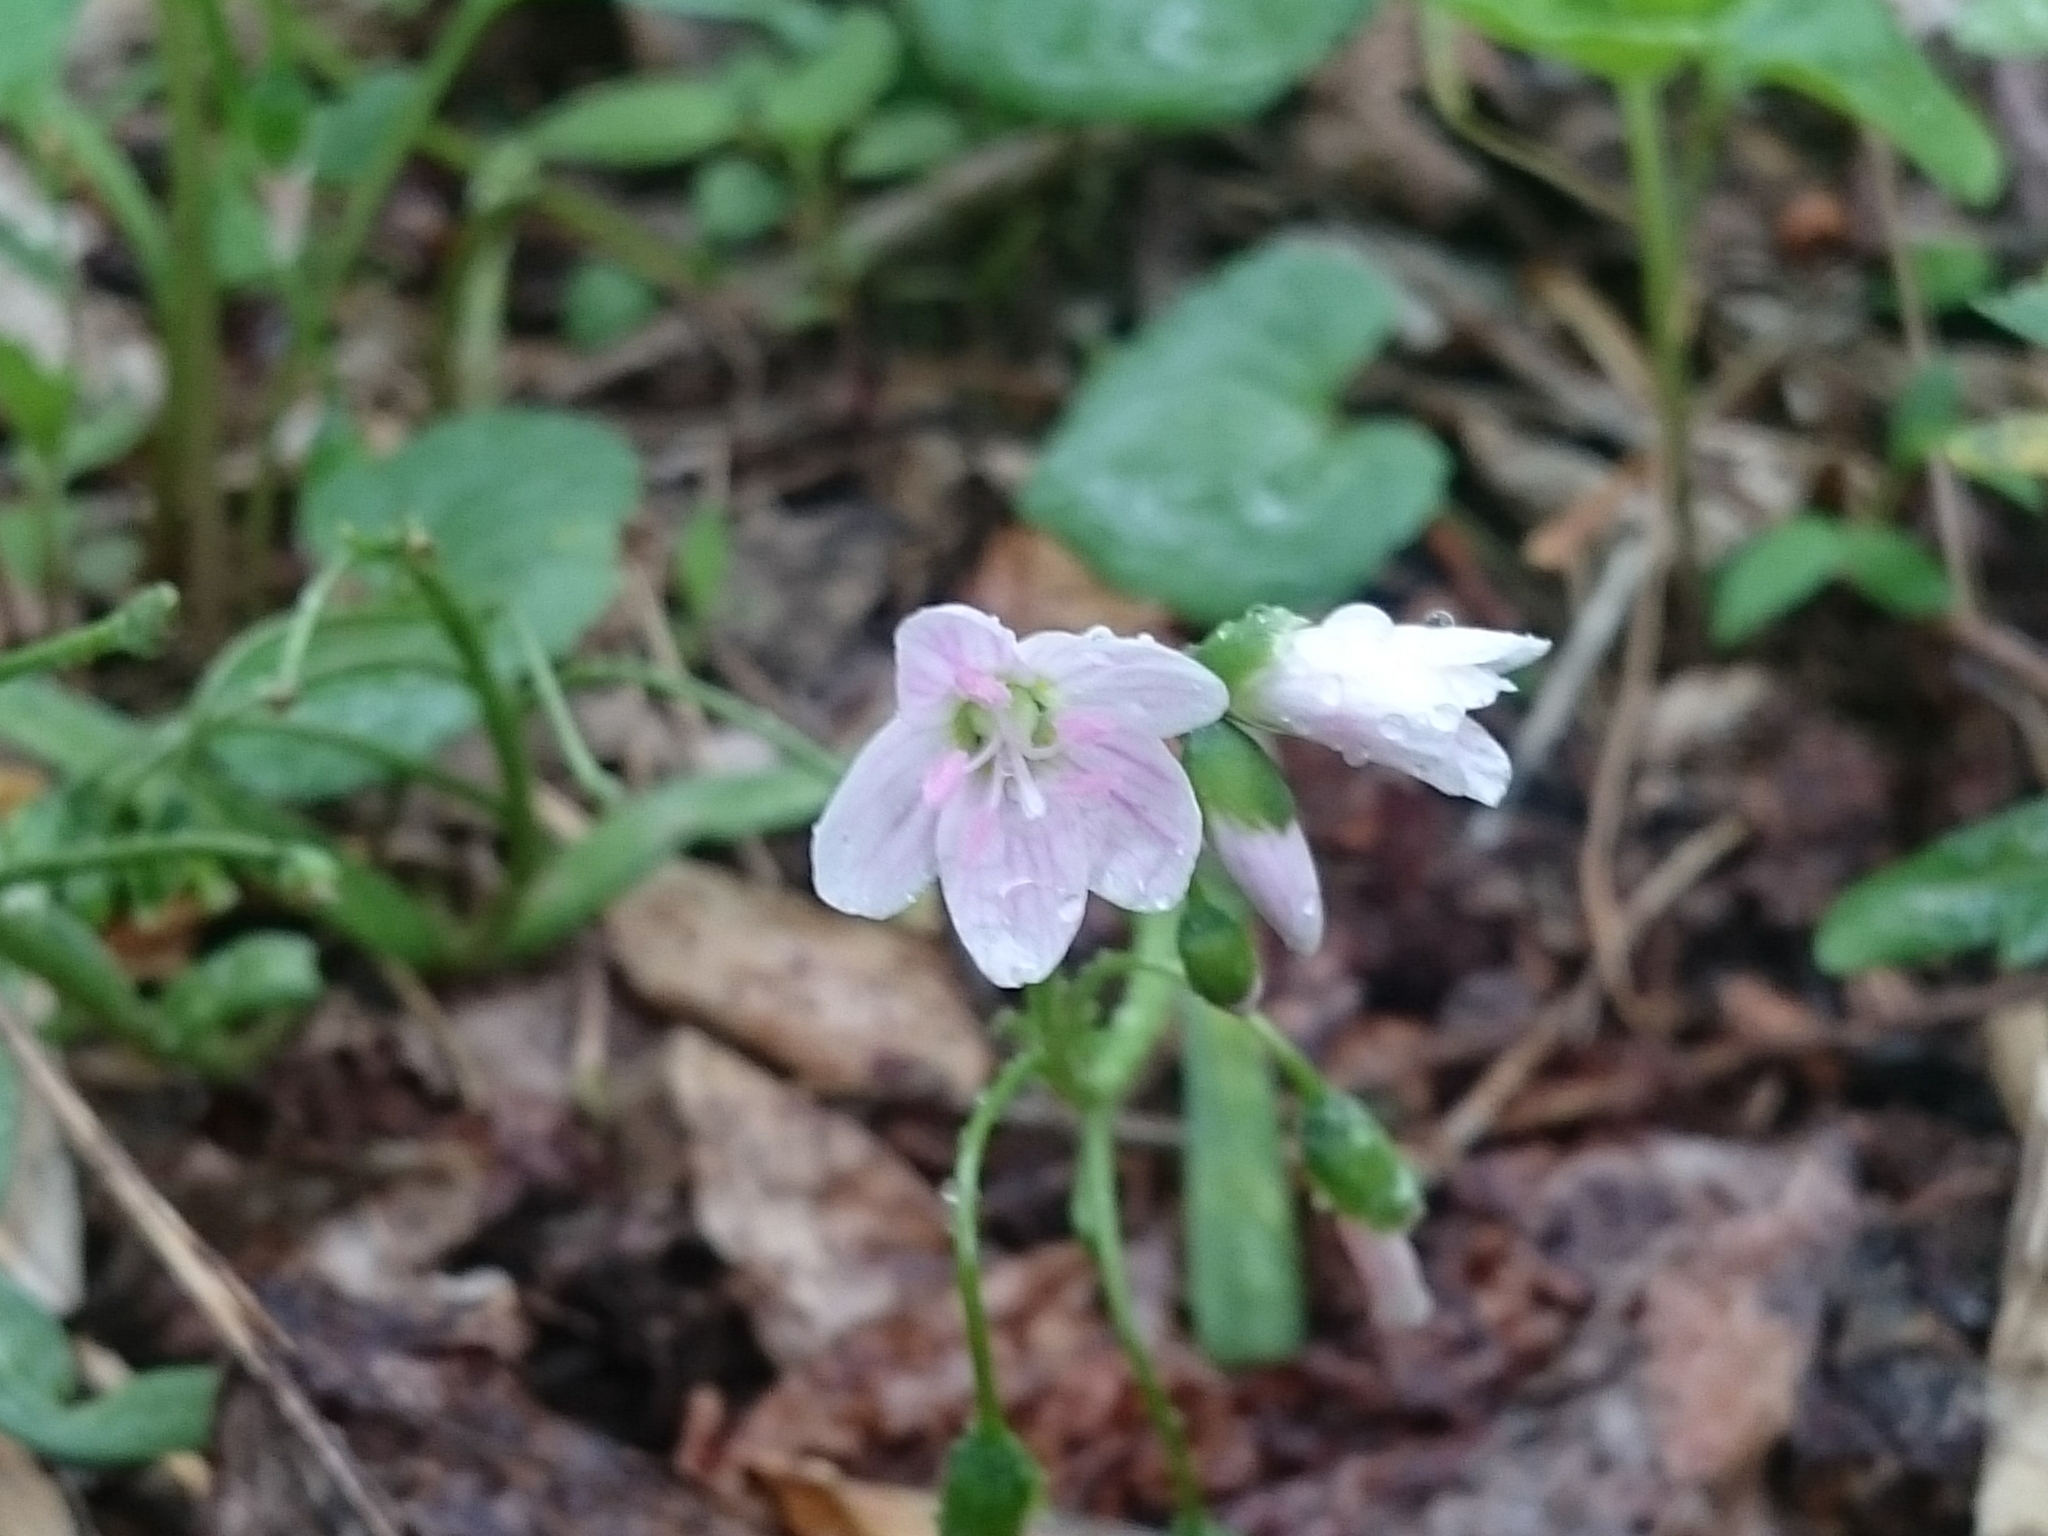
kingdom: Plantae
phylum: Tracheophyta
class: Magnoliopsida
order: Caryophyllales
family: Montiaceae
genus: Claytonia
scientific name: Claytonia virginica
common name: Virginia springbeauty
